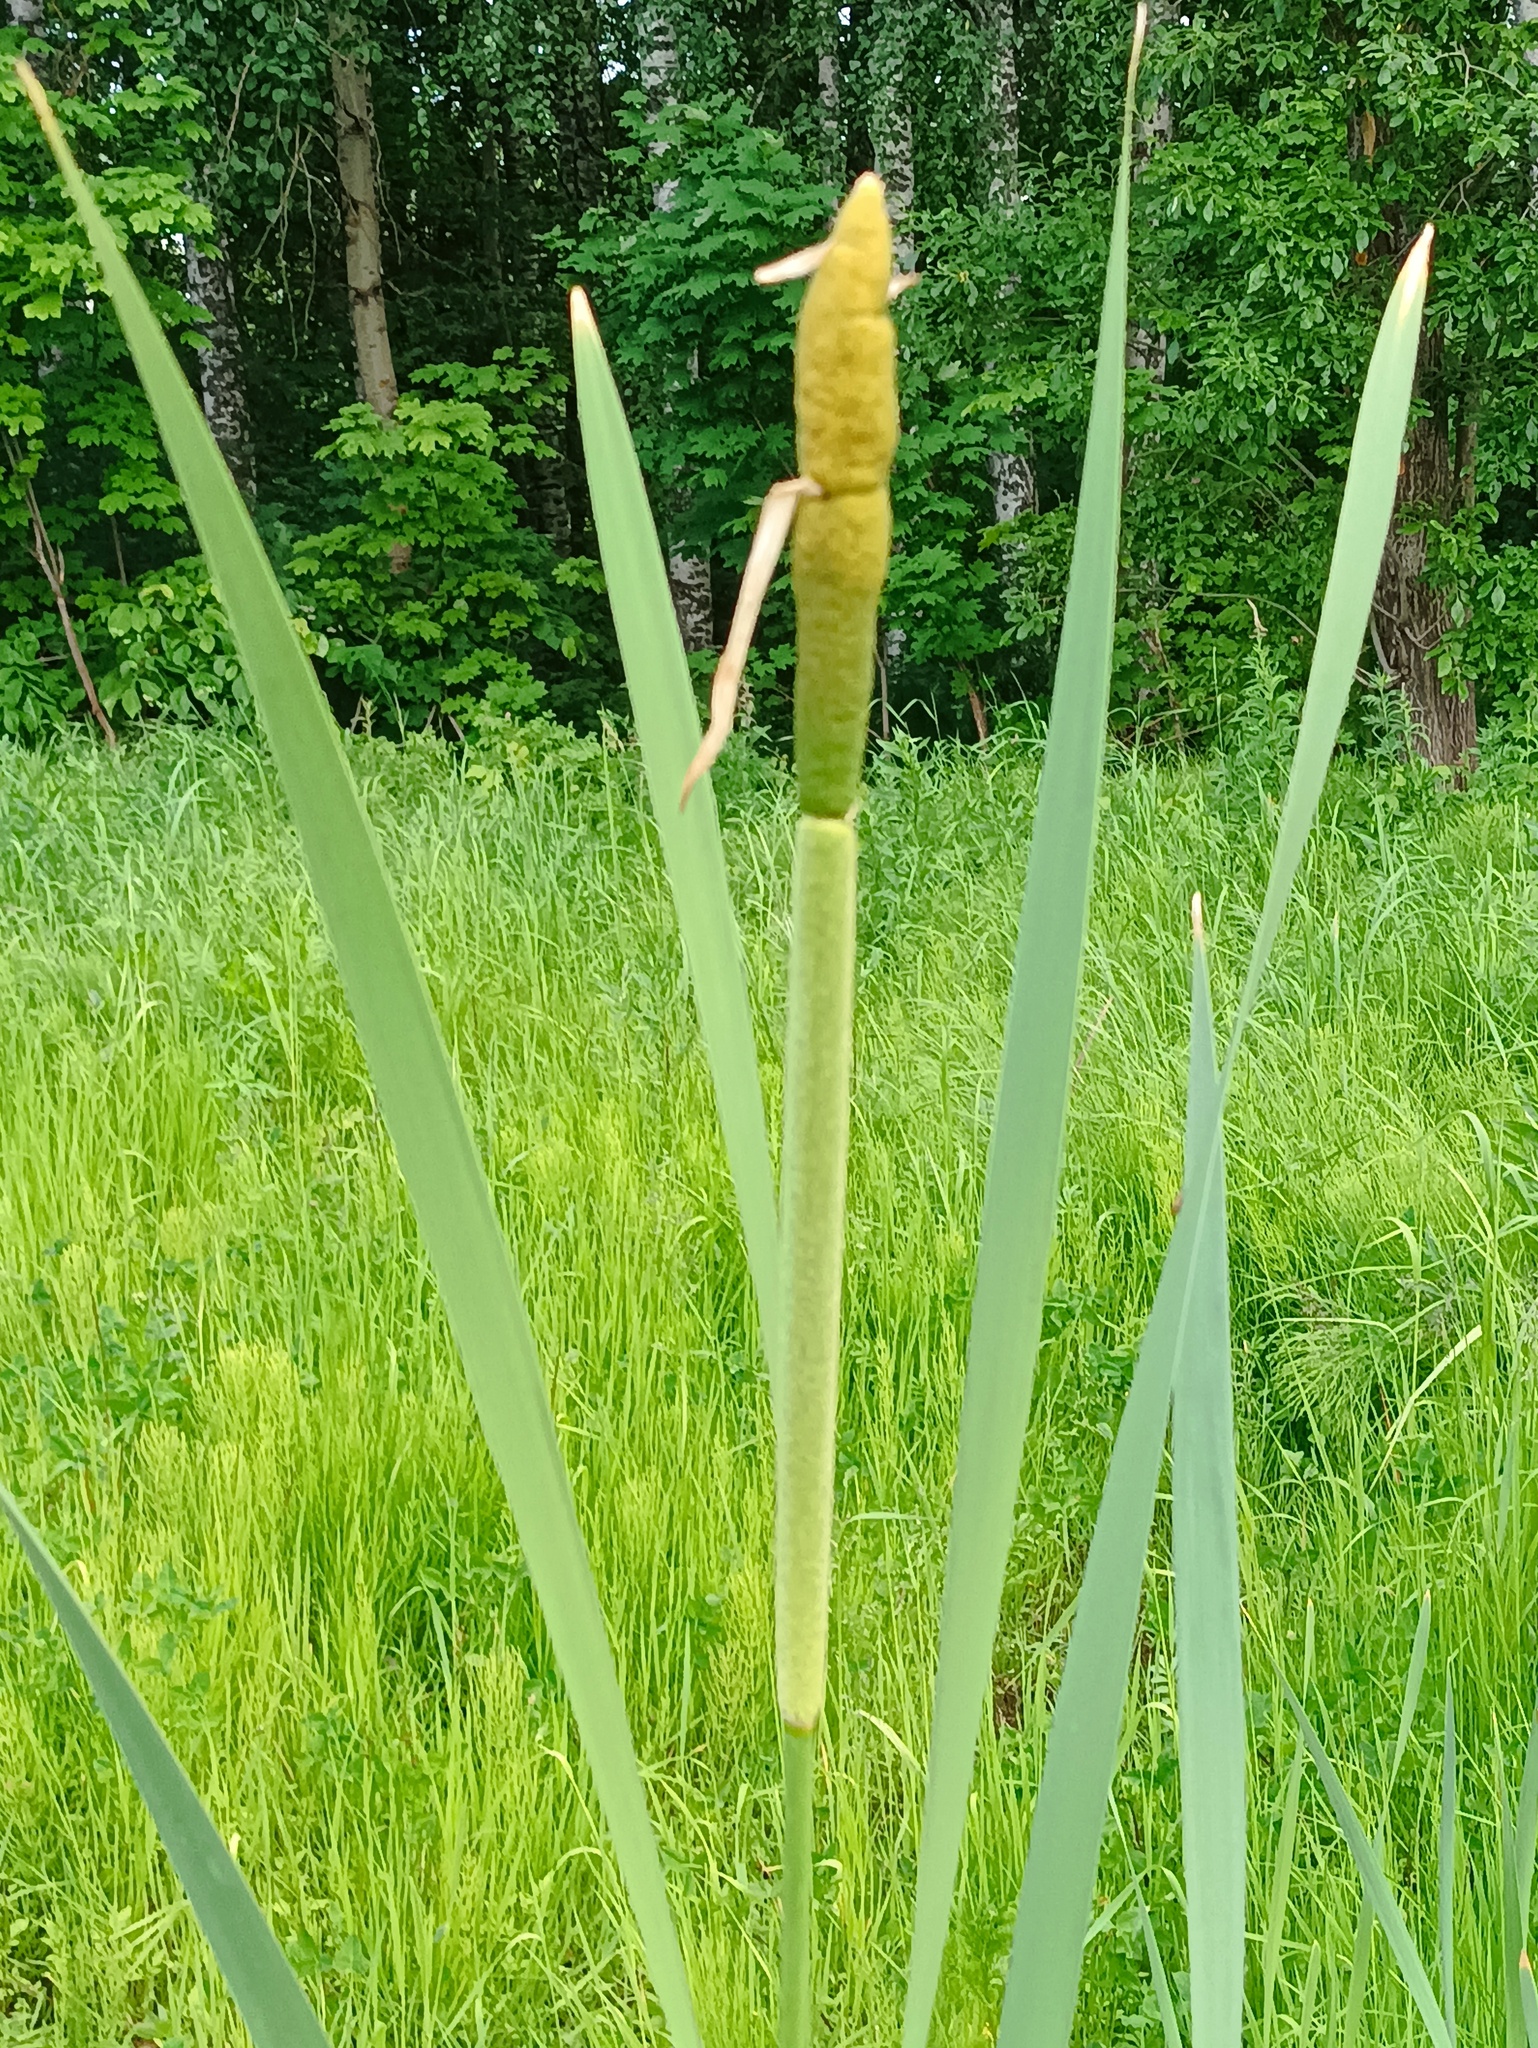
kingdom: Plantae
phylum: Tracheophyta
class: Liliopsida
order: Poales
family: Typhaceae
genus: Typha
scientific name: Typha latifolia
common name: Broadleaf cattail
